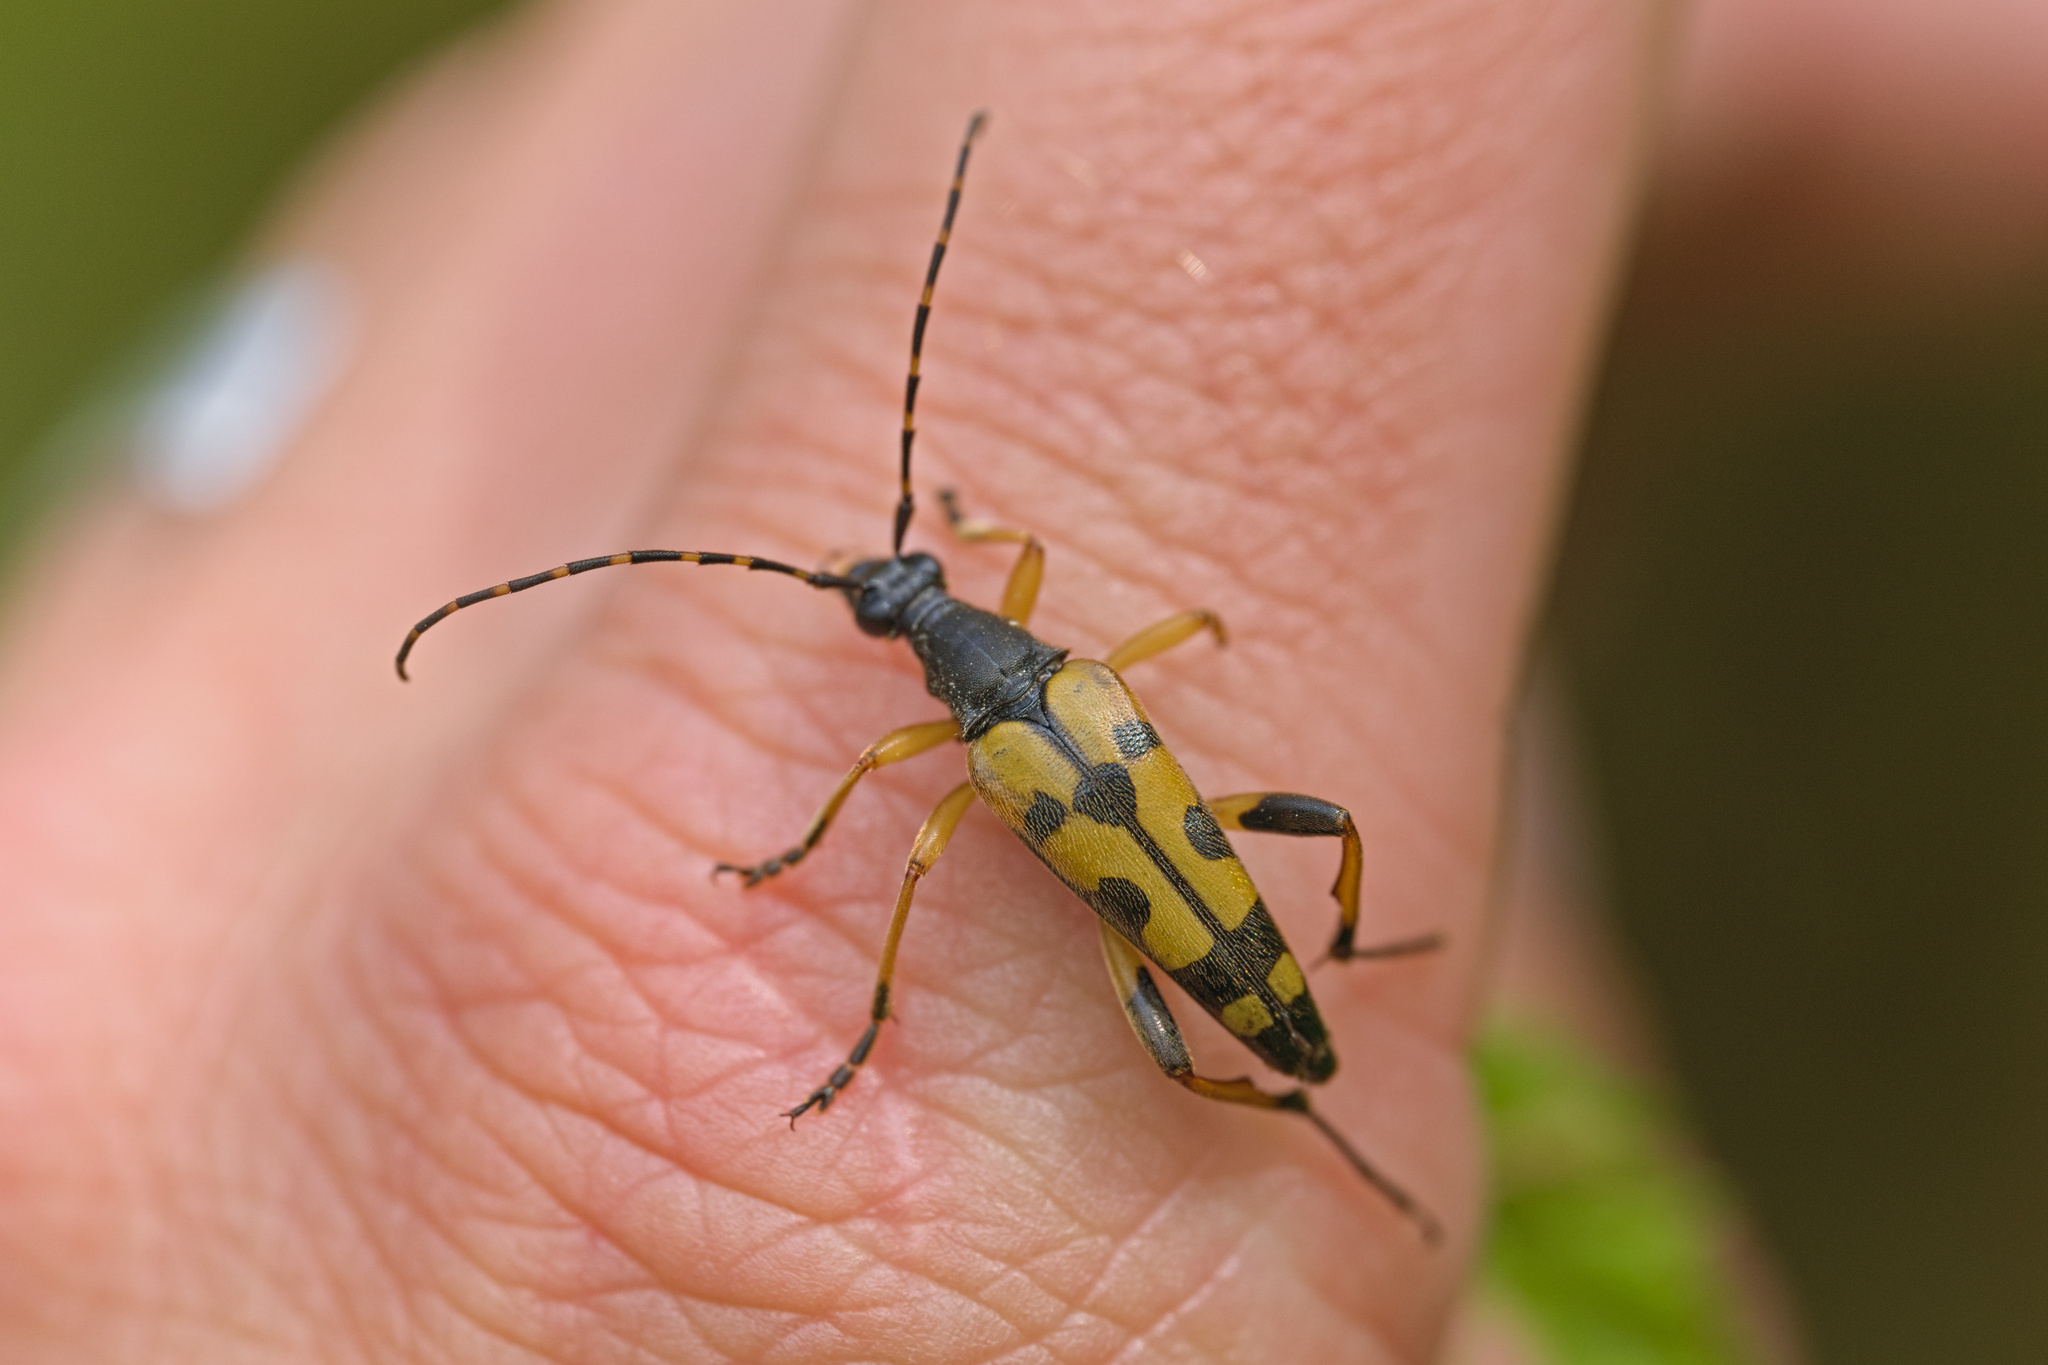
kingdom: Animalia
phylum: Arthropoda
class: Insecta
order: Coleoptera
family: Cerambycidae
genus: Rutpela
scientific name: Rutpela maculata
